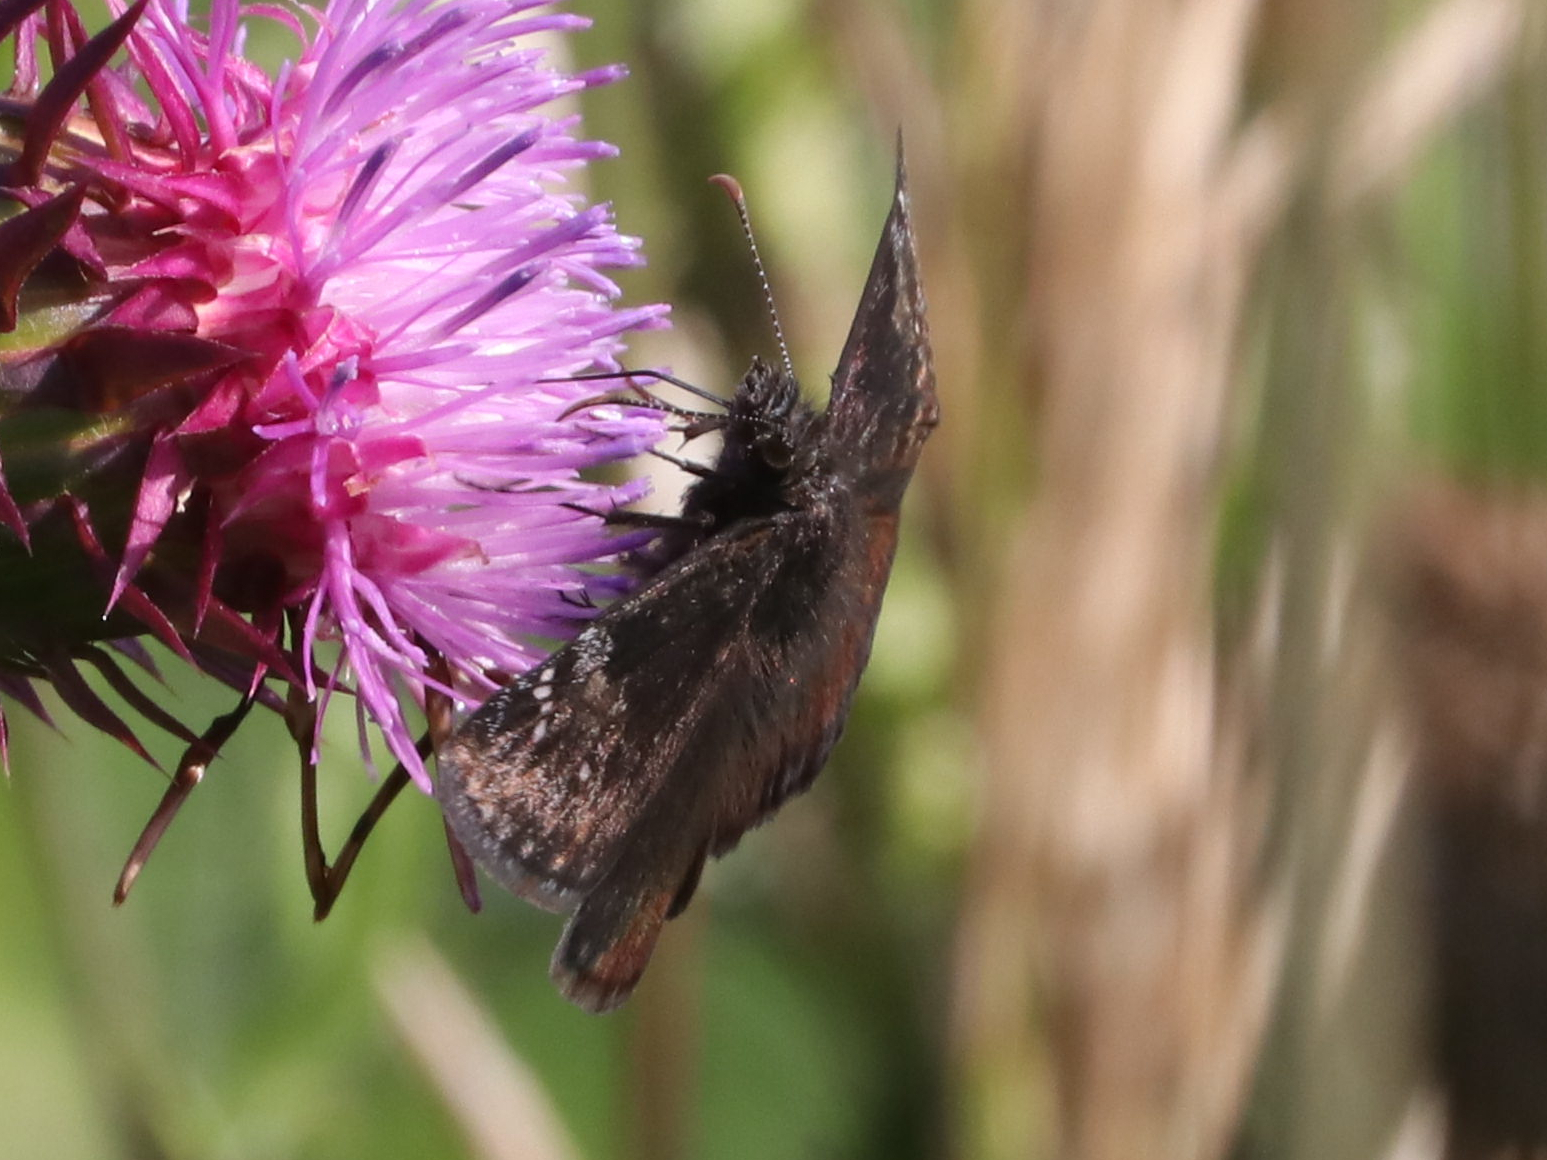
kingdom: Animalia
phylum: Arthropoda
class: Insecta
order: Lepidoptera
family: Hesperiidae
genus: Erynnis
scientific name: Erynnis baptisiae
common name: Wild indigo duskywing
